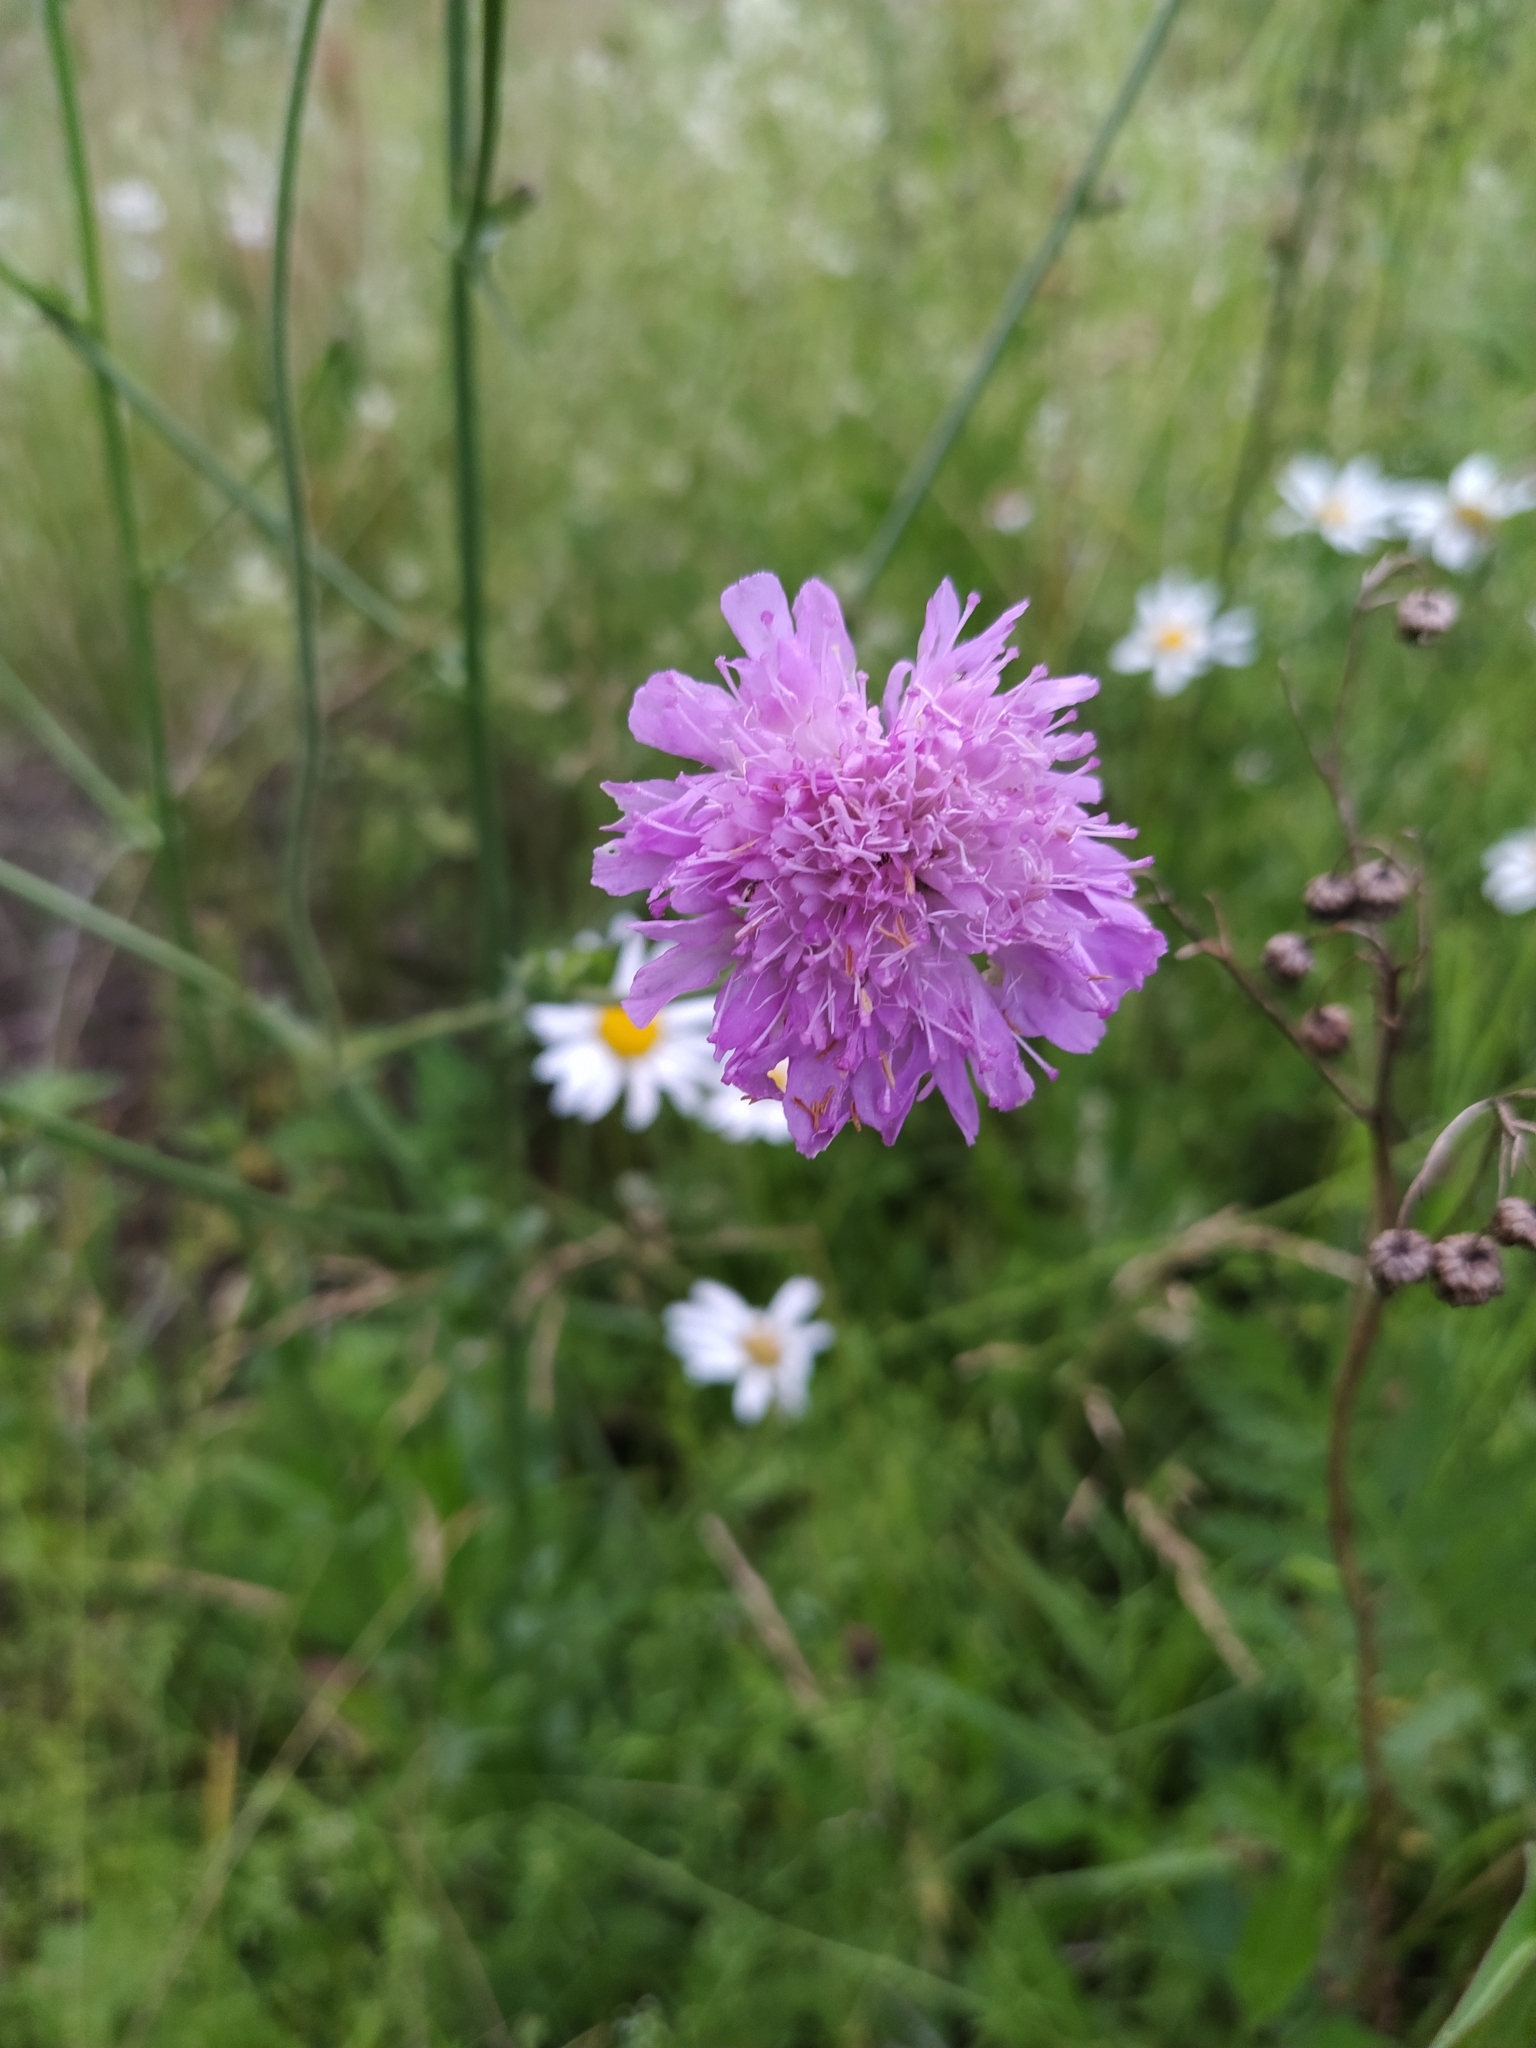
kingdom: Plantae
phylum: Tracheophyta
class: Magnoliopsida
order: Dipsacales
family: Caprifoliaceae
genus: Knautia
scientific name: Knautia arvensis
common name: Field scabiosa
